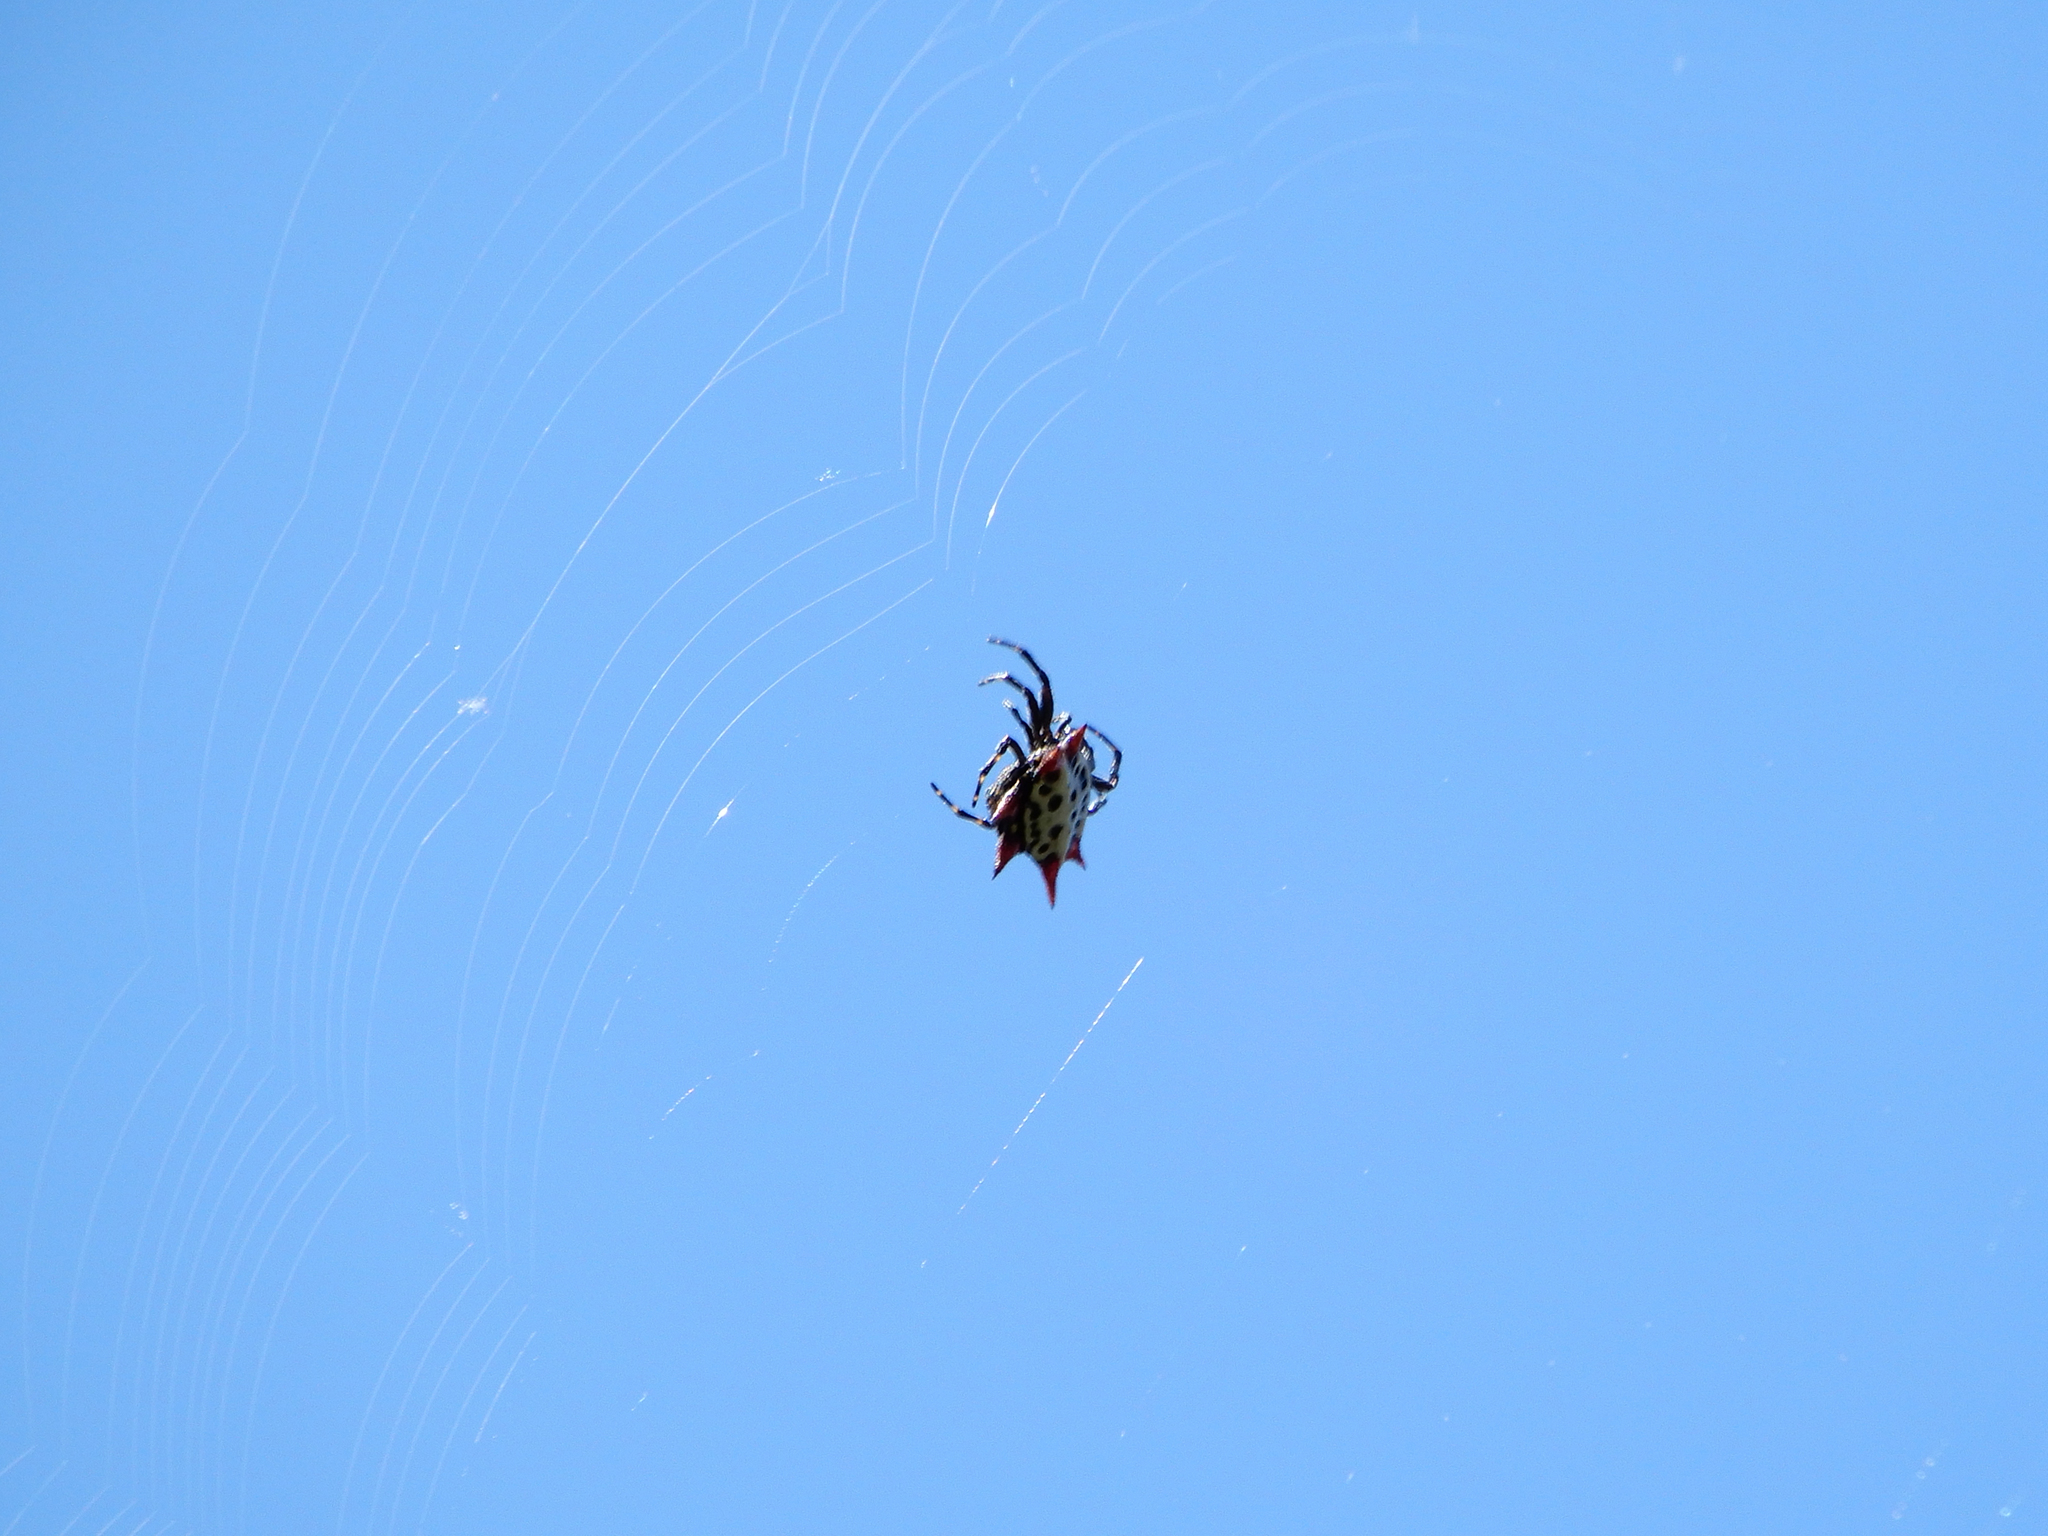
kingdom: Animalia
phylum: Arthropoda
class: Arachnida
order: Araneae
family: Araneidae
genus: Gasteracantha
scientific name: Gasteracantha cancriformis
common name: Orb weavers
